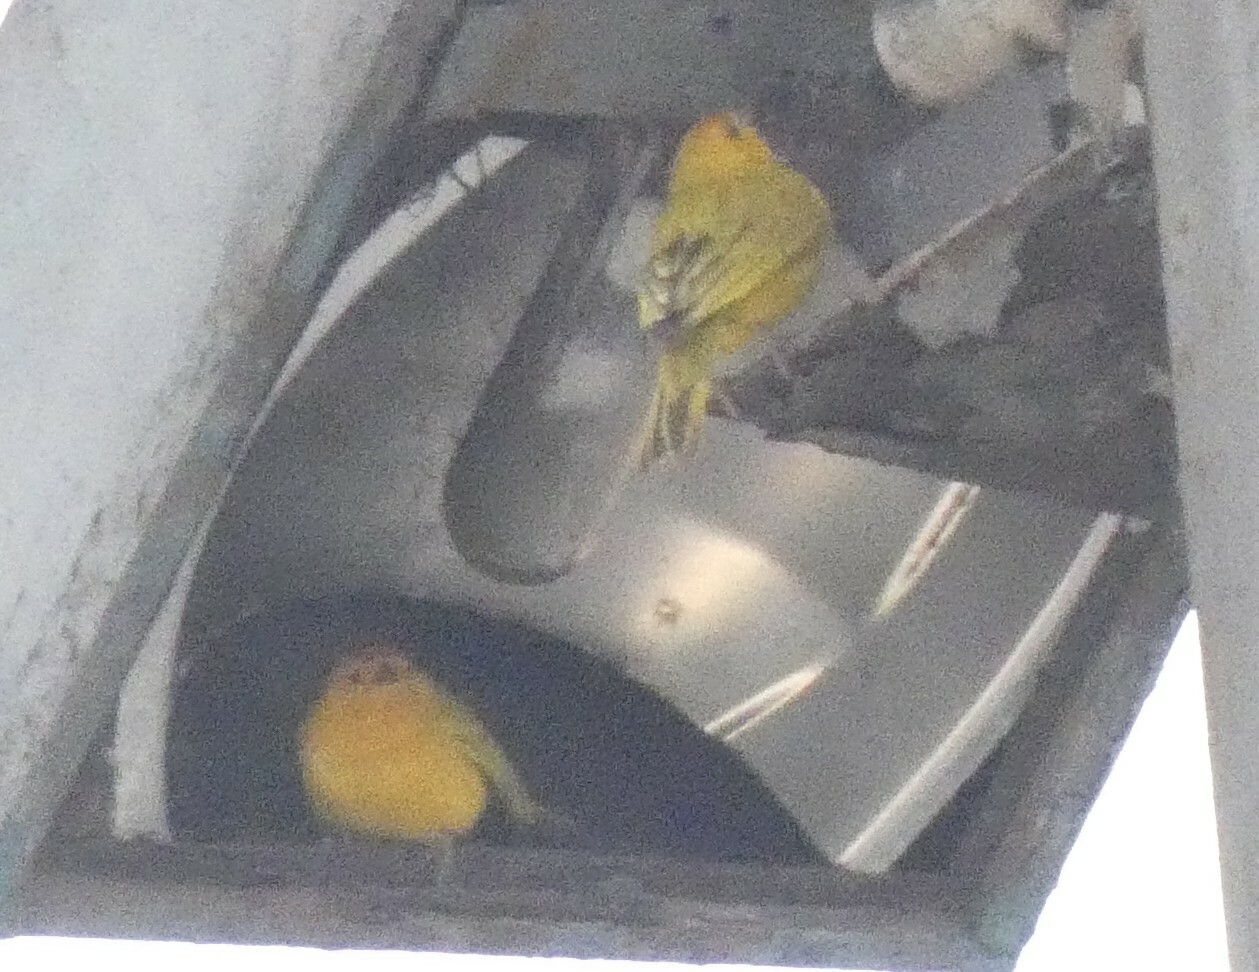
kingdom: Animalia
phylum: Chordata
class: Aves
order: Passeriformes
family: Thraupidae
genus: Sicalis
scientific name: Sicalis flaveola
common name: Saffron finch
